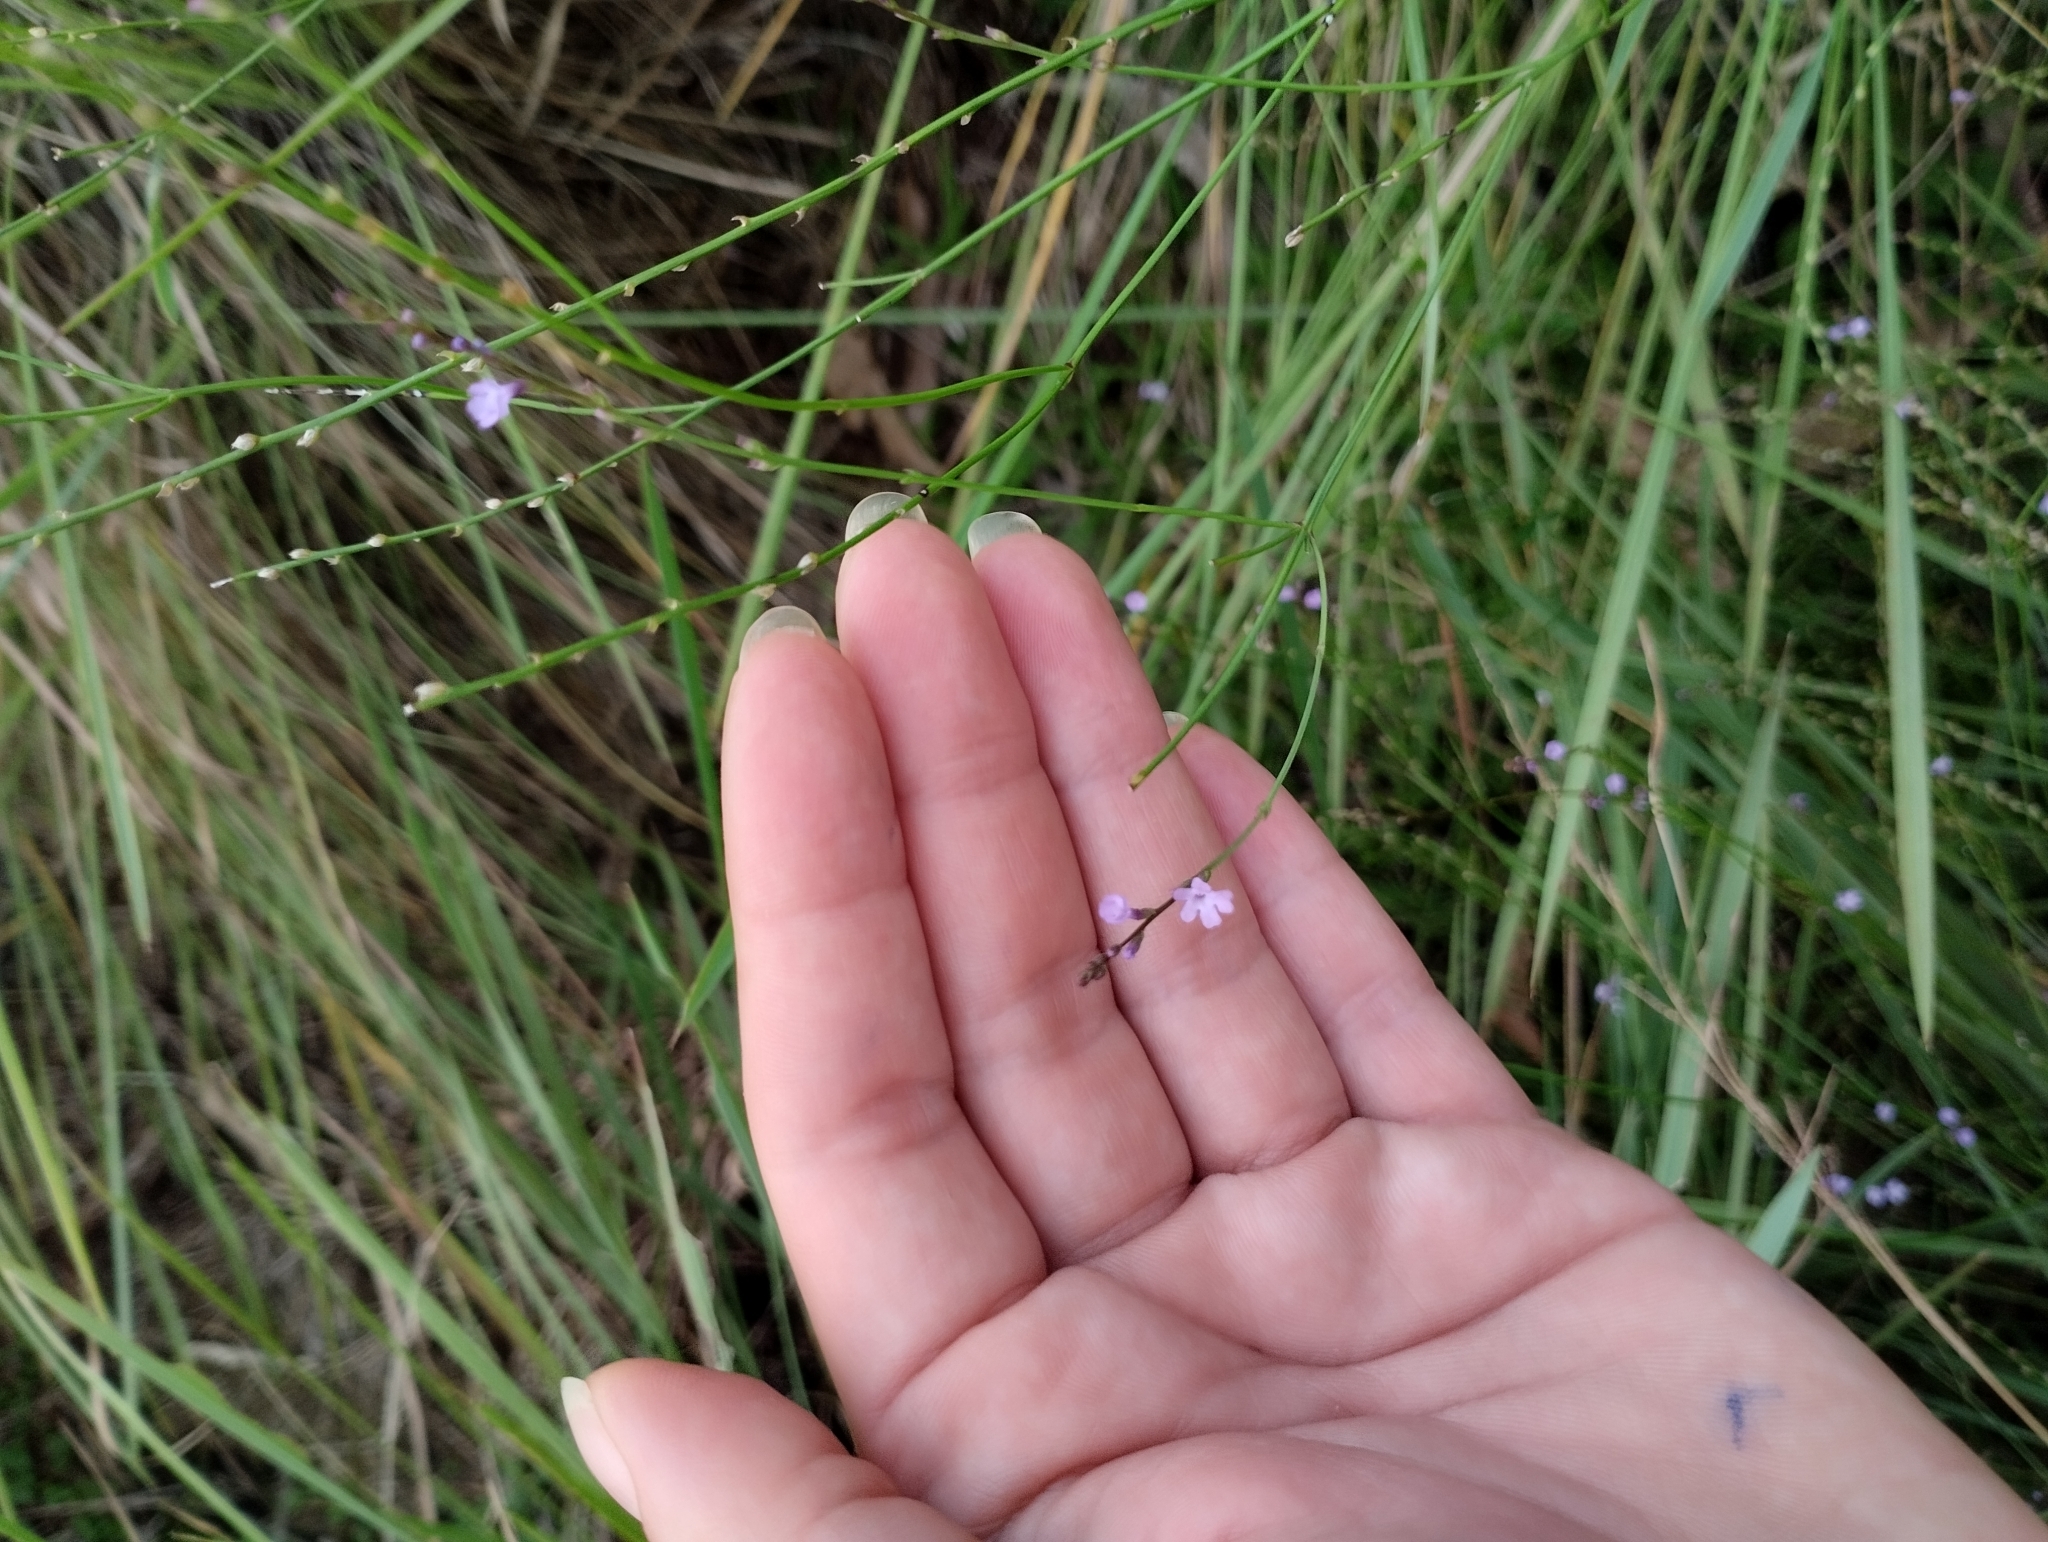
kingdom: Plantae
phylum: Tracheophyta
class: Magnoliopsida
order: Lamiales
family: Verbenaceae
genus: Verbena
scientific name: Verbena gracilescens
